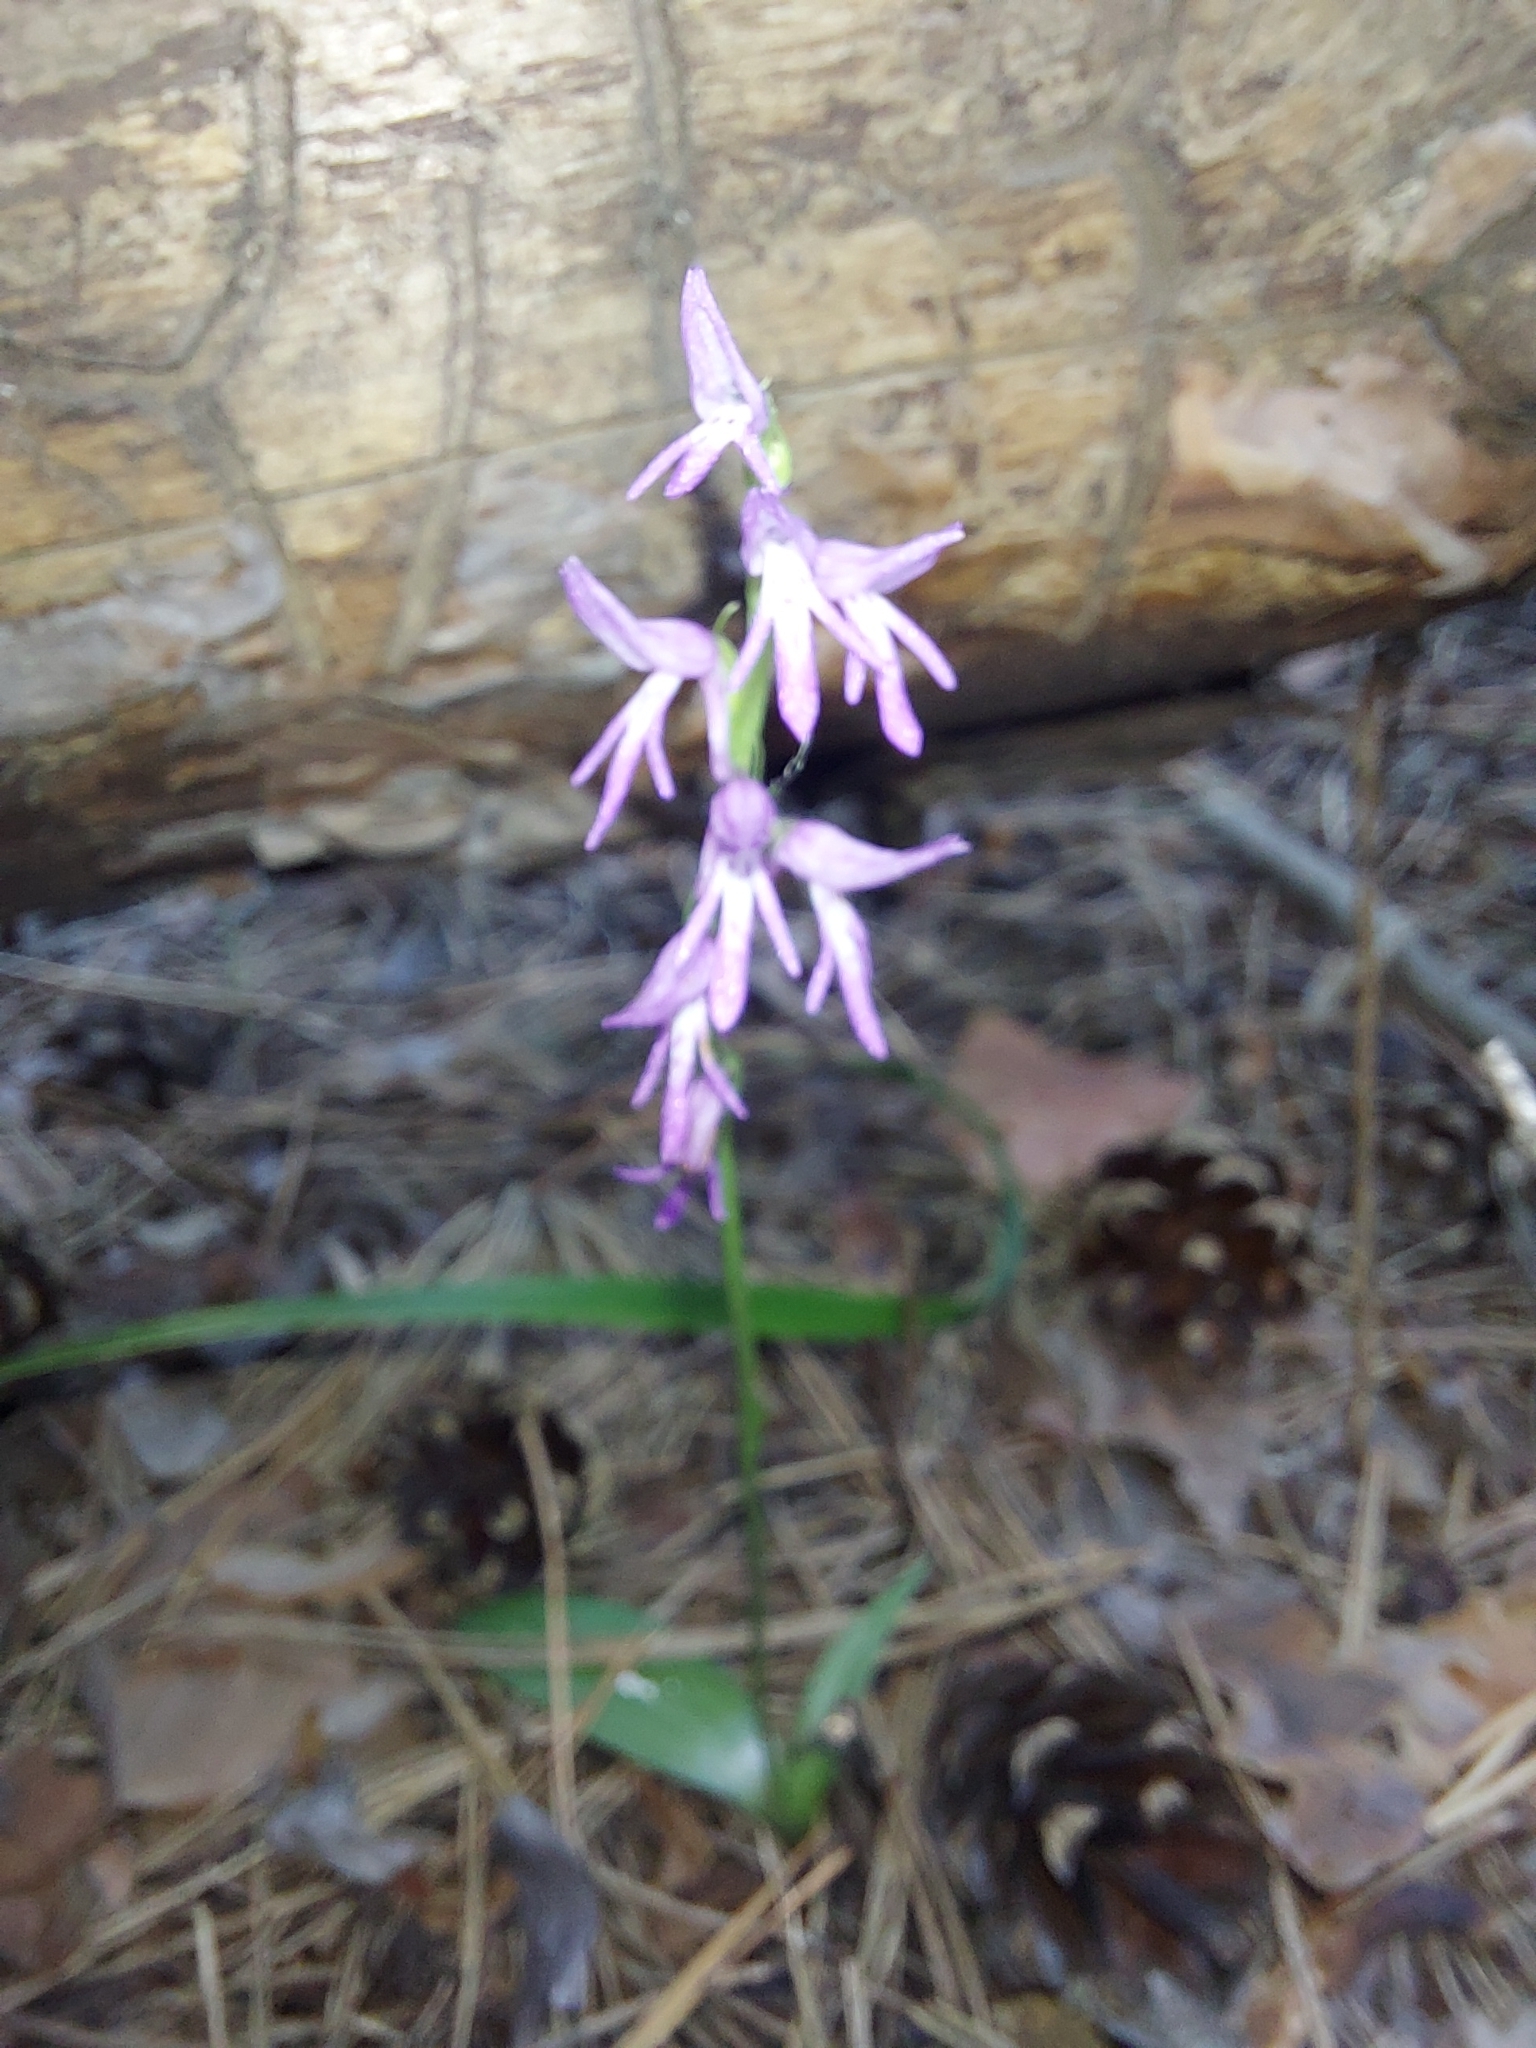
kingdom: Plantae
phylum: Tracheophyta
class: Liliopsida
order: Asparagales
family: Orchidaceae
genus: Hemipilia
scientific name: Hemipilia cucullata
